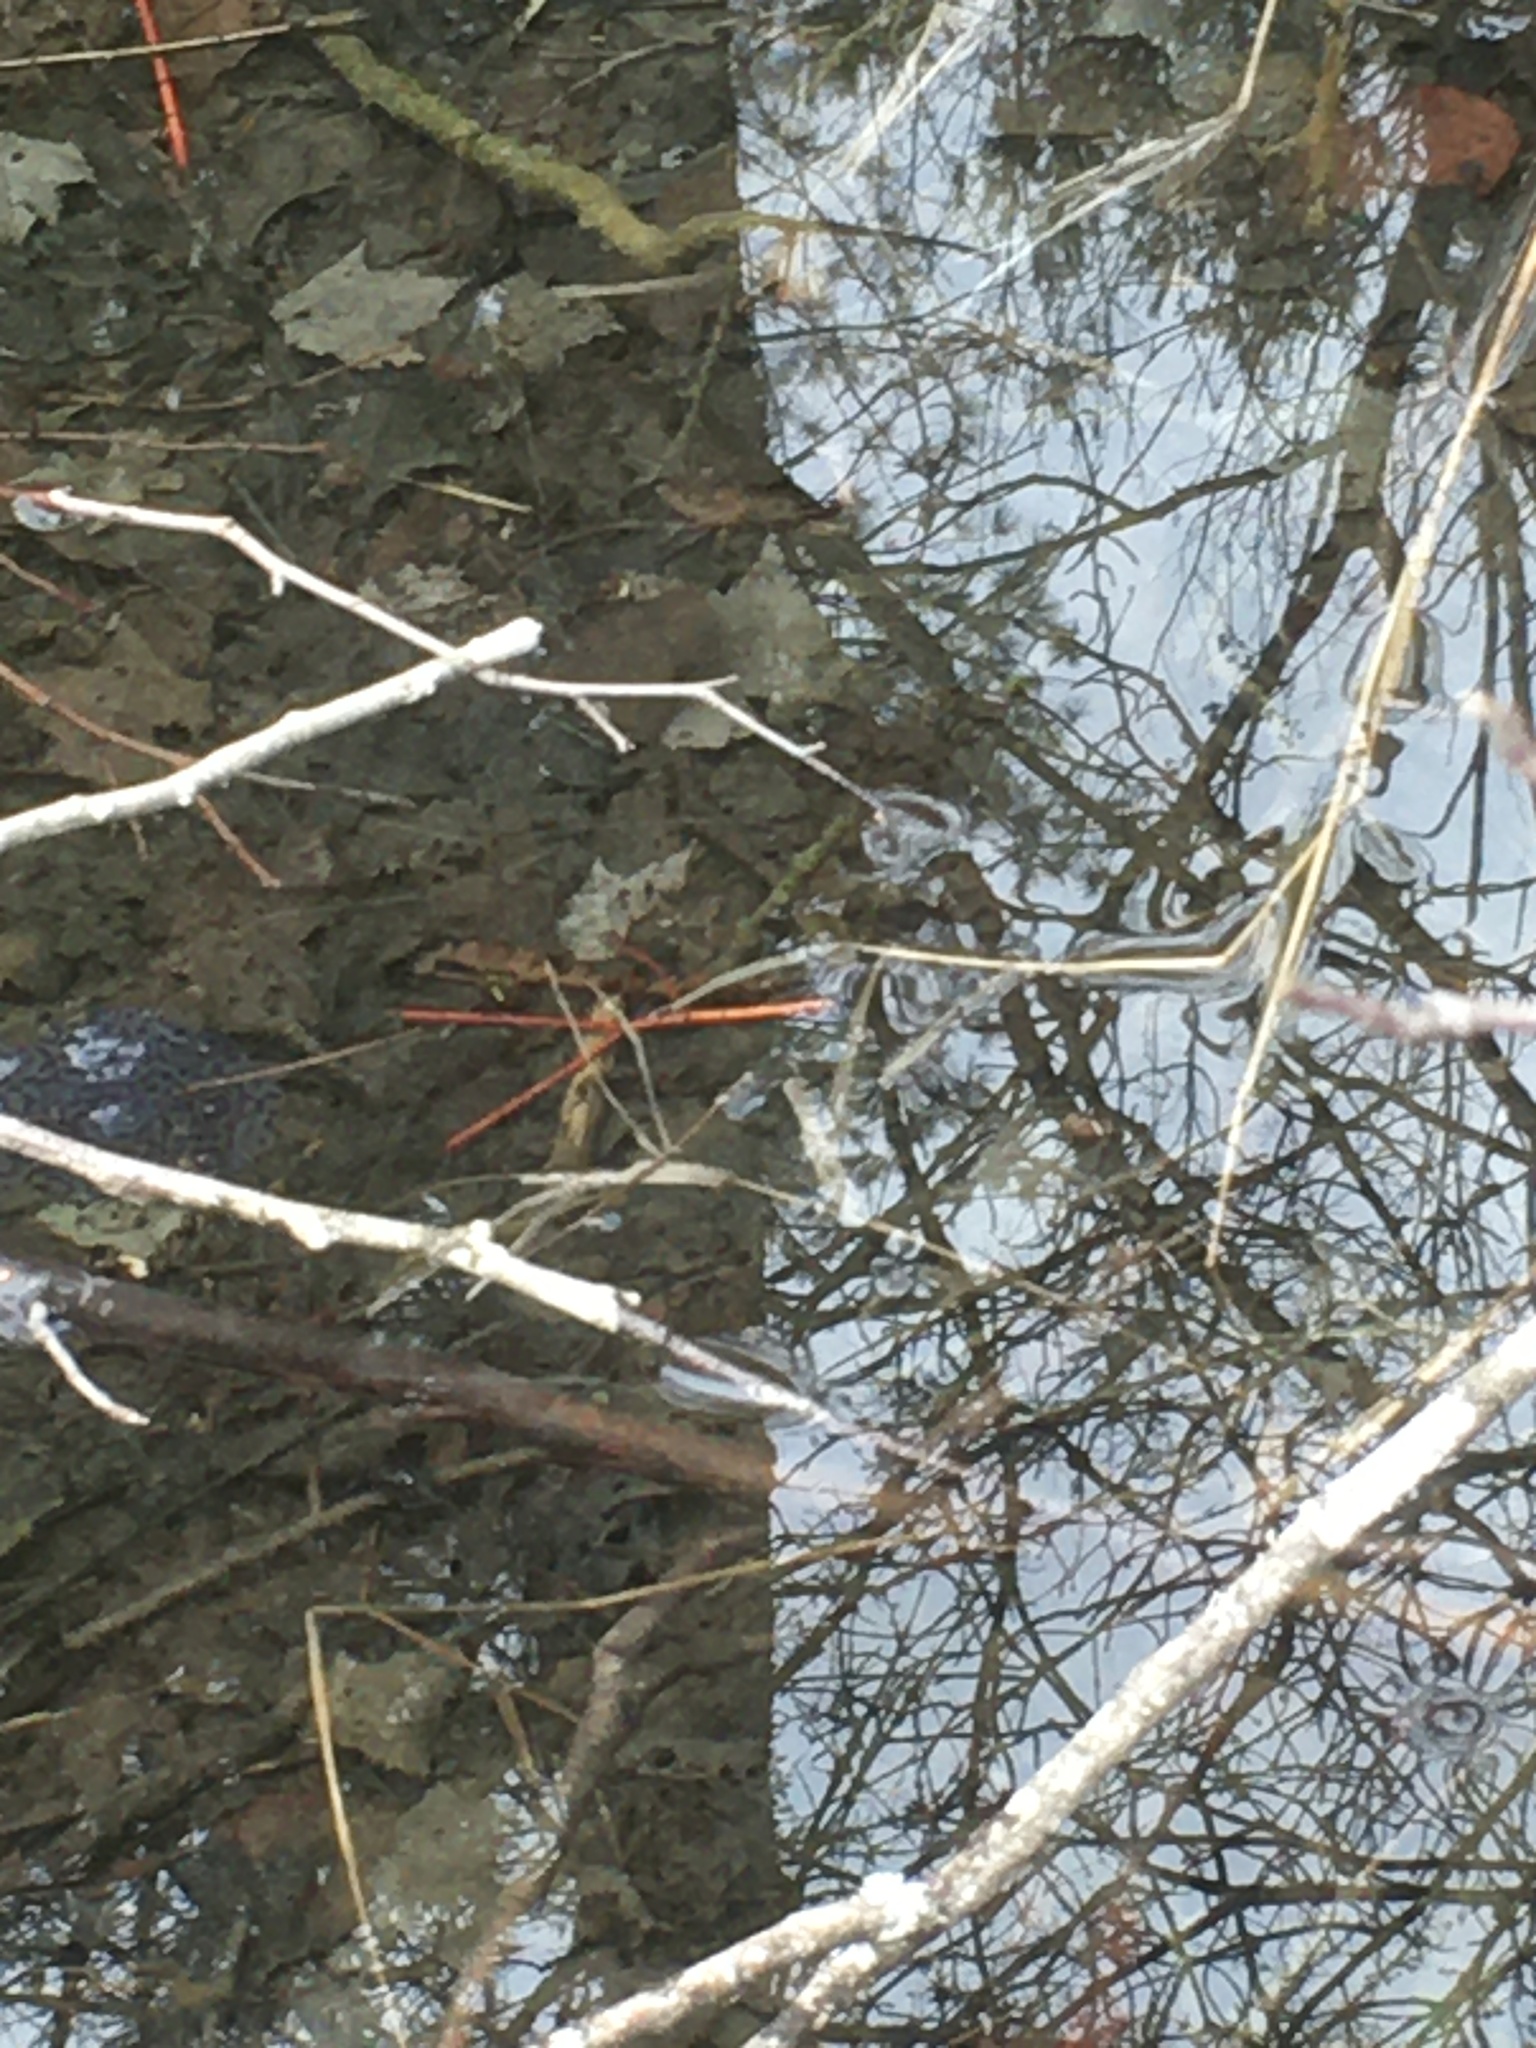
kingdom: Animalia
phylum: Chordata
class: Amphibia
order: Anura
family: Ranidae
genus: Lithobates
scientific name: Lithobates sylvaticus
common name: Wood frog
